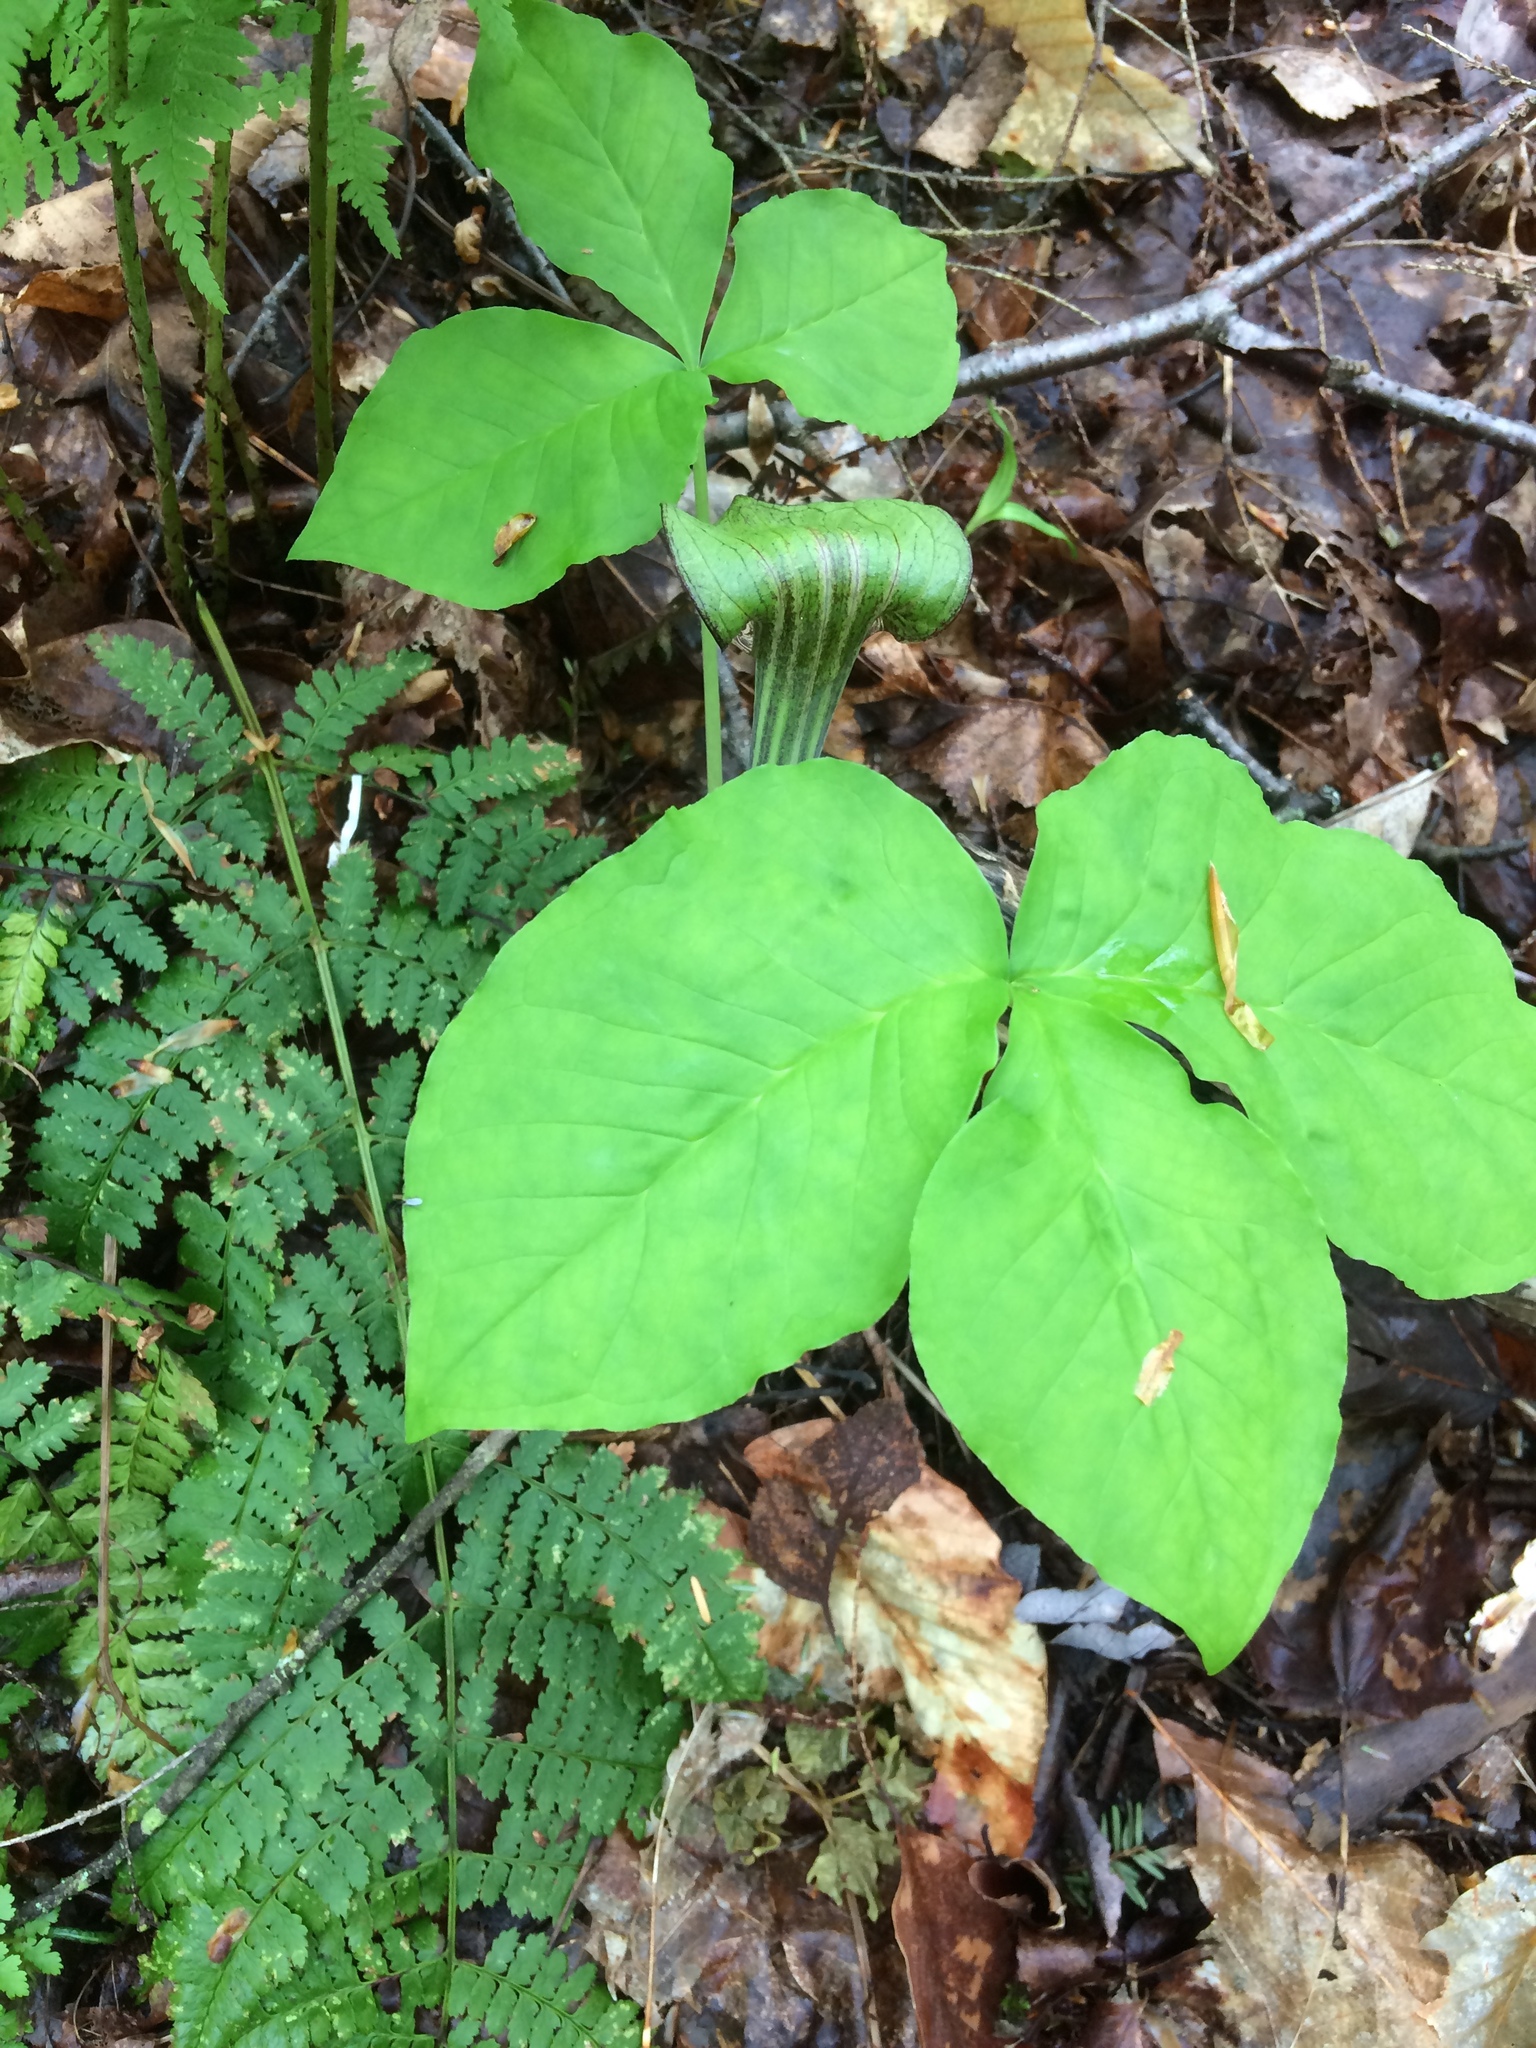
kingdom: Plantae
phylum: Tracheophyta
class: Liliopsida
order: Alismatales
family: Araceae
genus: Arisaema
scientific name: Arisaema triphyllum
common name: Jack-in-the-pulpit
